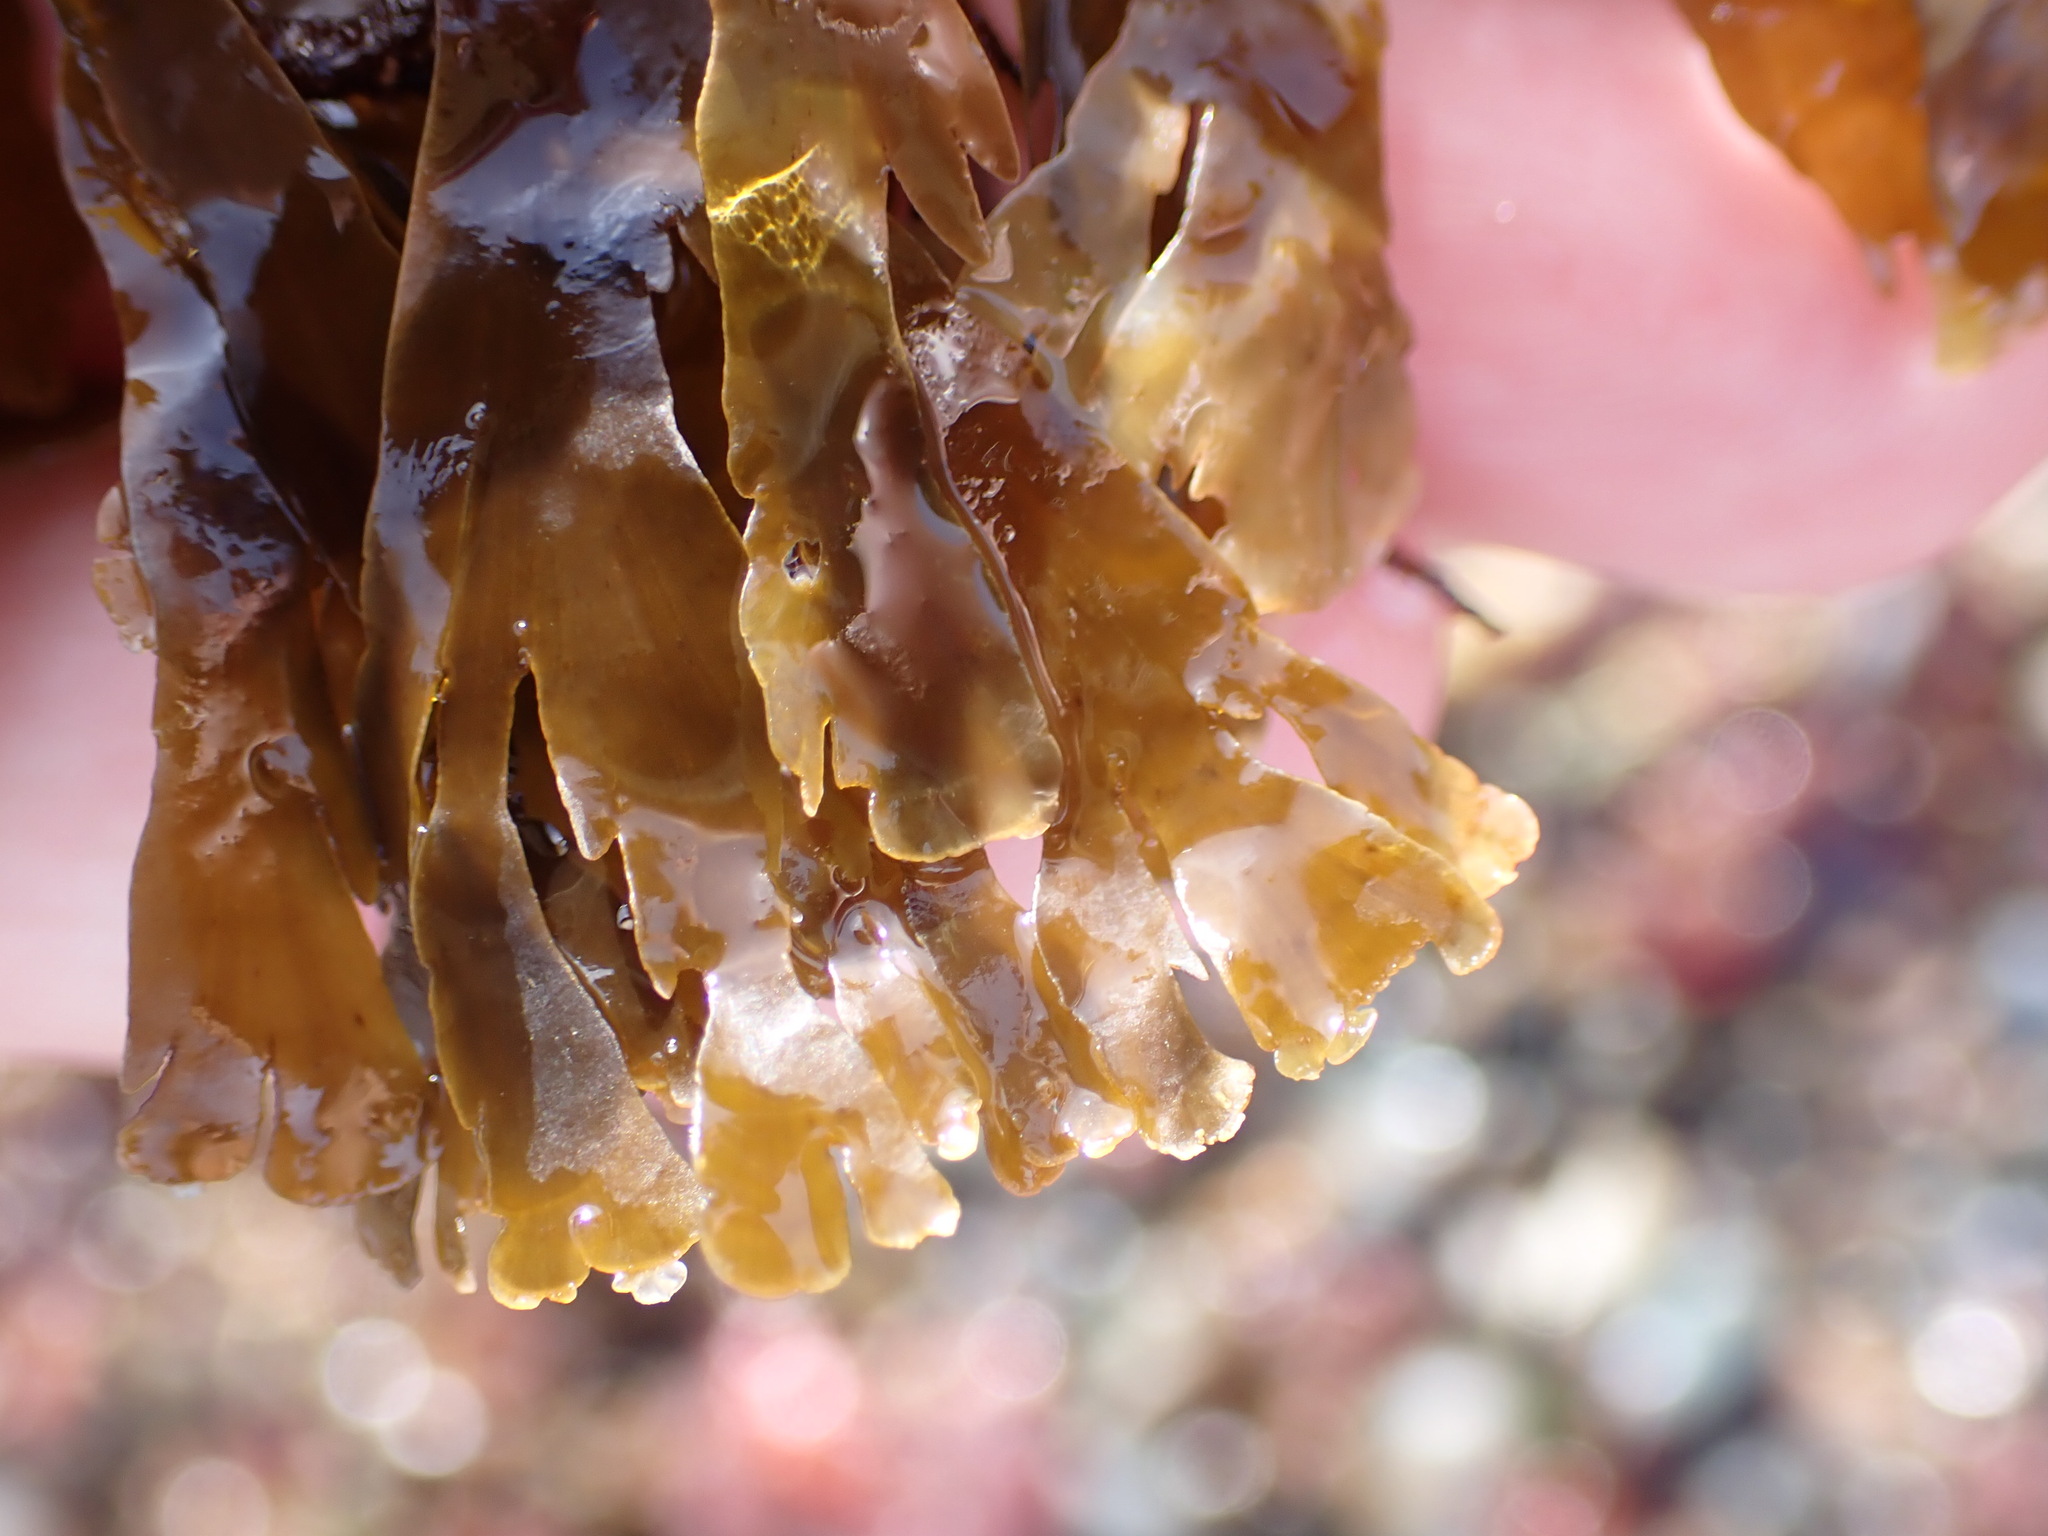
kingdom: Chromista
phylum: Ochrophyta
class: Phaeophyceae
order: Dictyotales
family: Dictyotaceae
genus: Dictyota
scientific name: Dictyota kunthii
